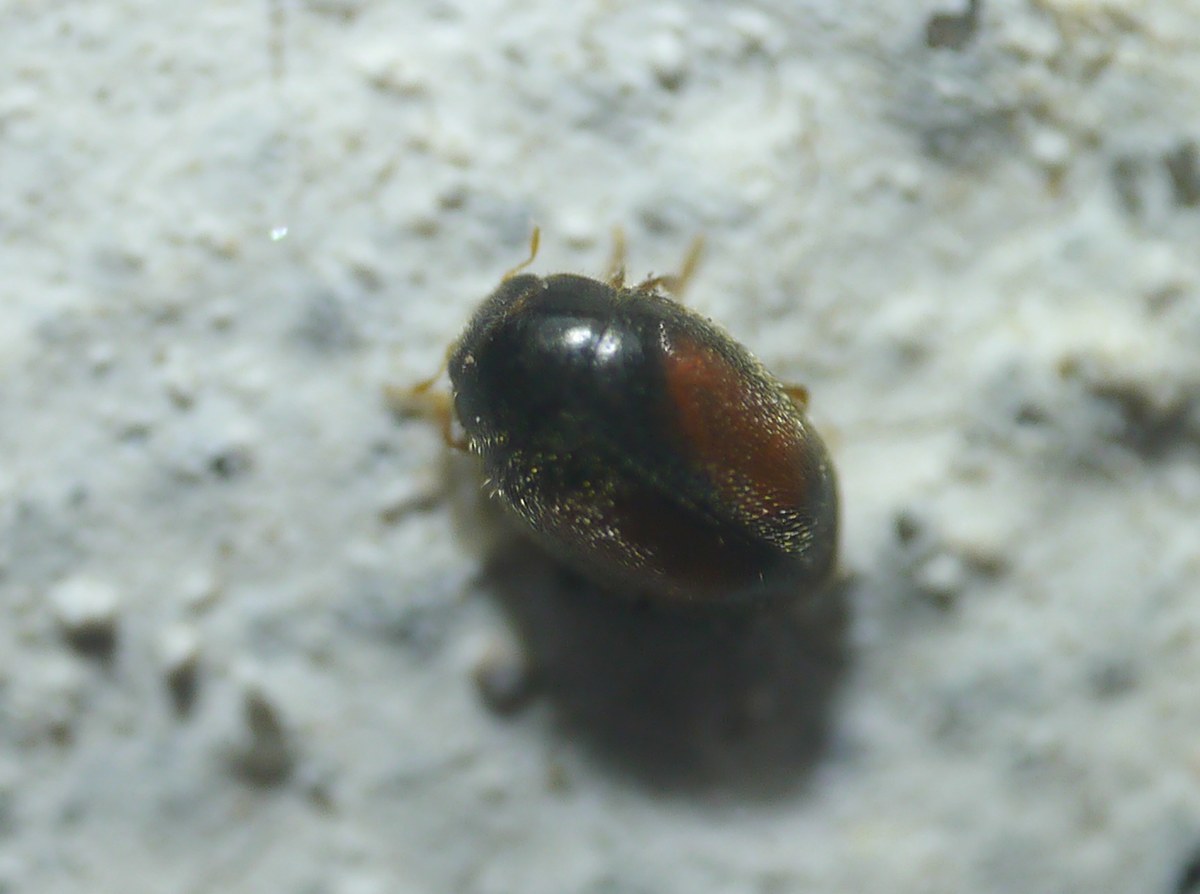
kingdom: Animalia
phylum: Arthropoda
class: Insecta
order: Coleoptera
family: Coccinellidae
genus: Nephus
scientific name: Nephus redtenbacheri
